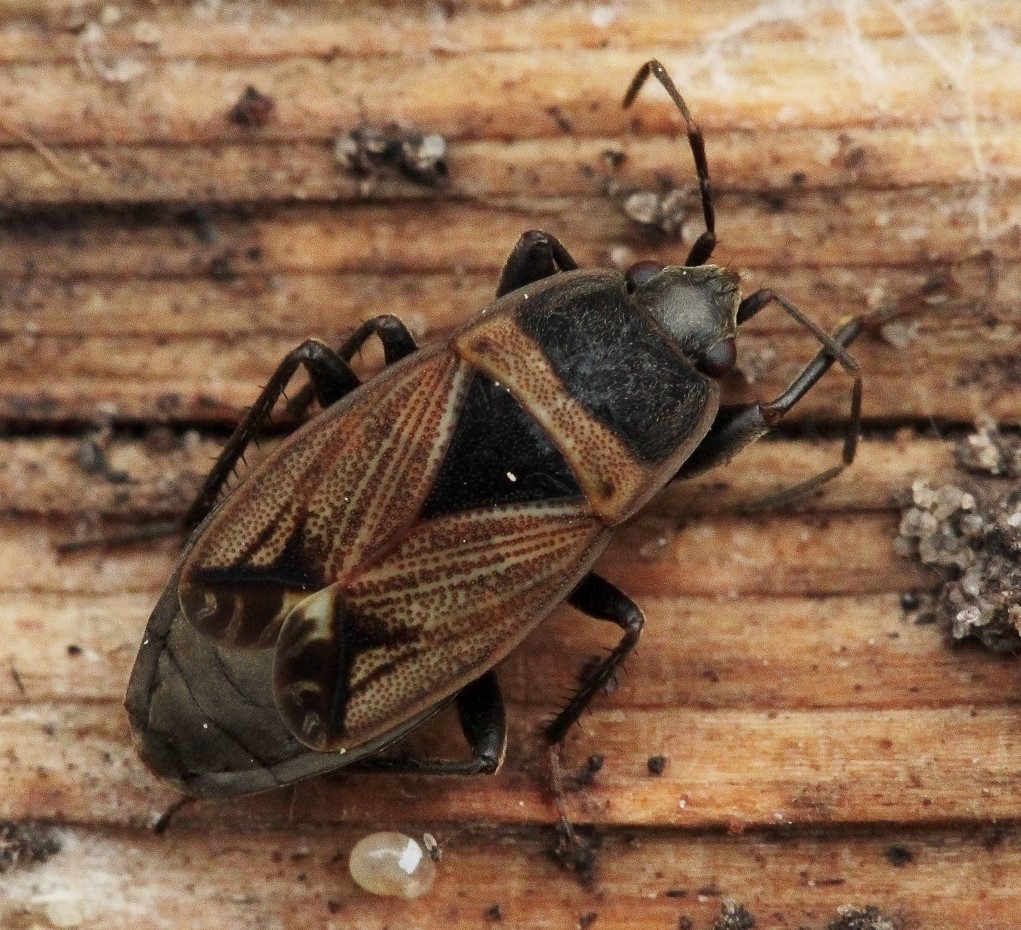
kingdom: Animalia
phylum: Arthropoda
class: Insecta
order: Hemiptera
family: Rhyparochromidae
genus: Bleteogonus
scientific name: Bleteogonus beckeri
